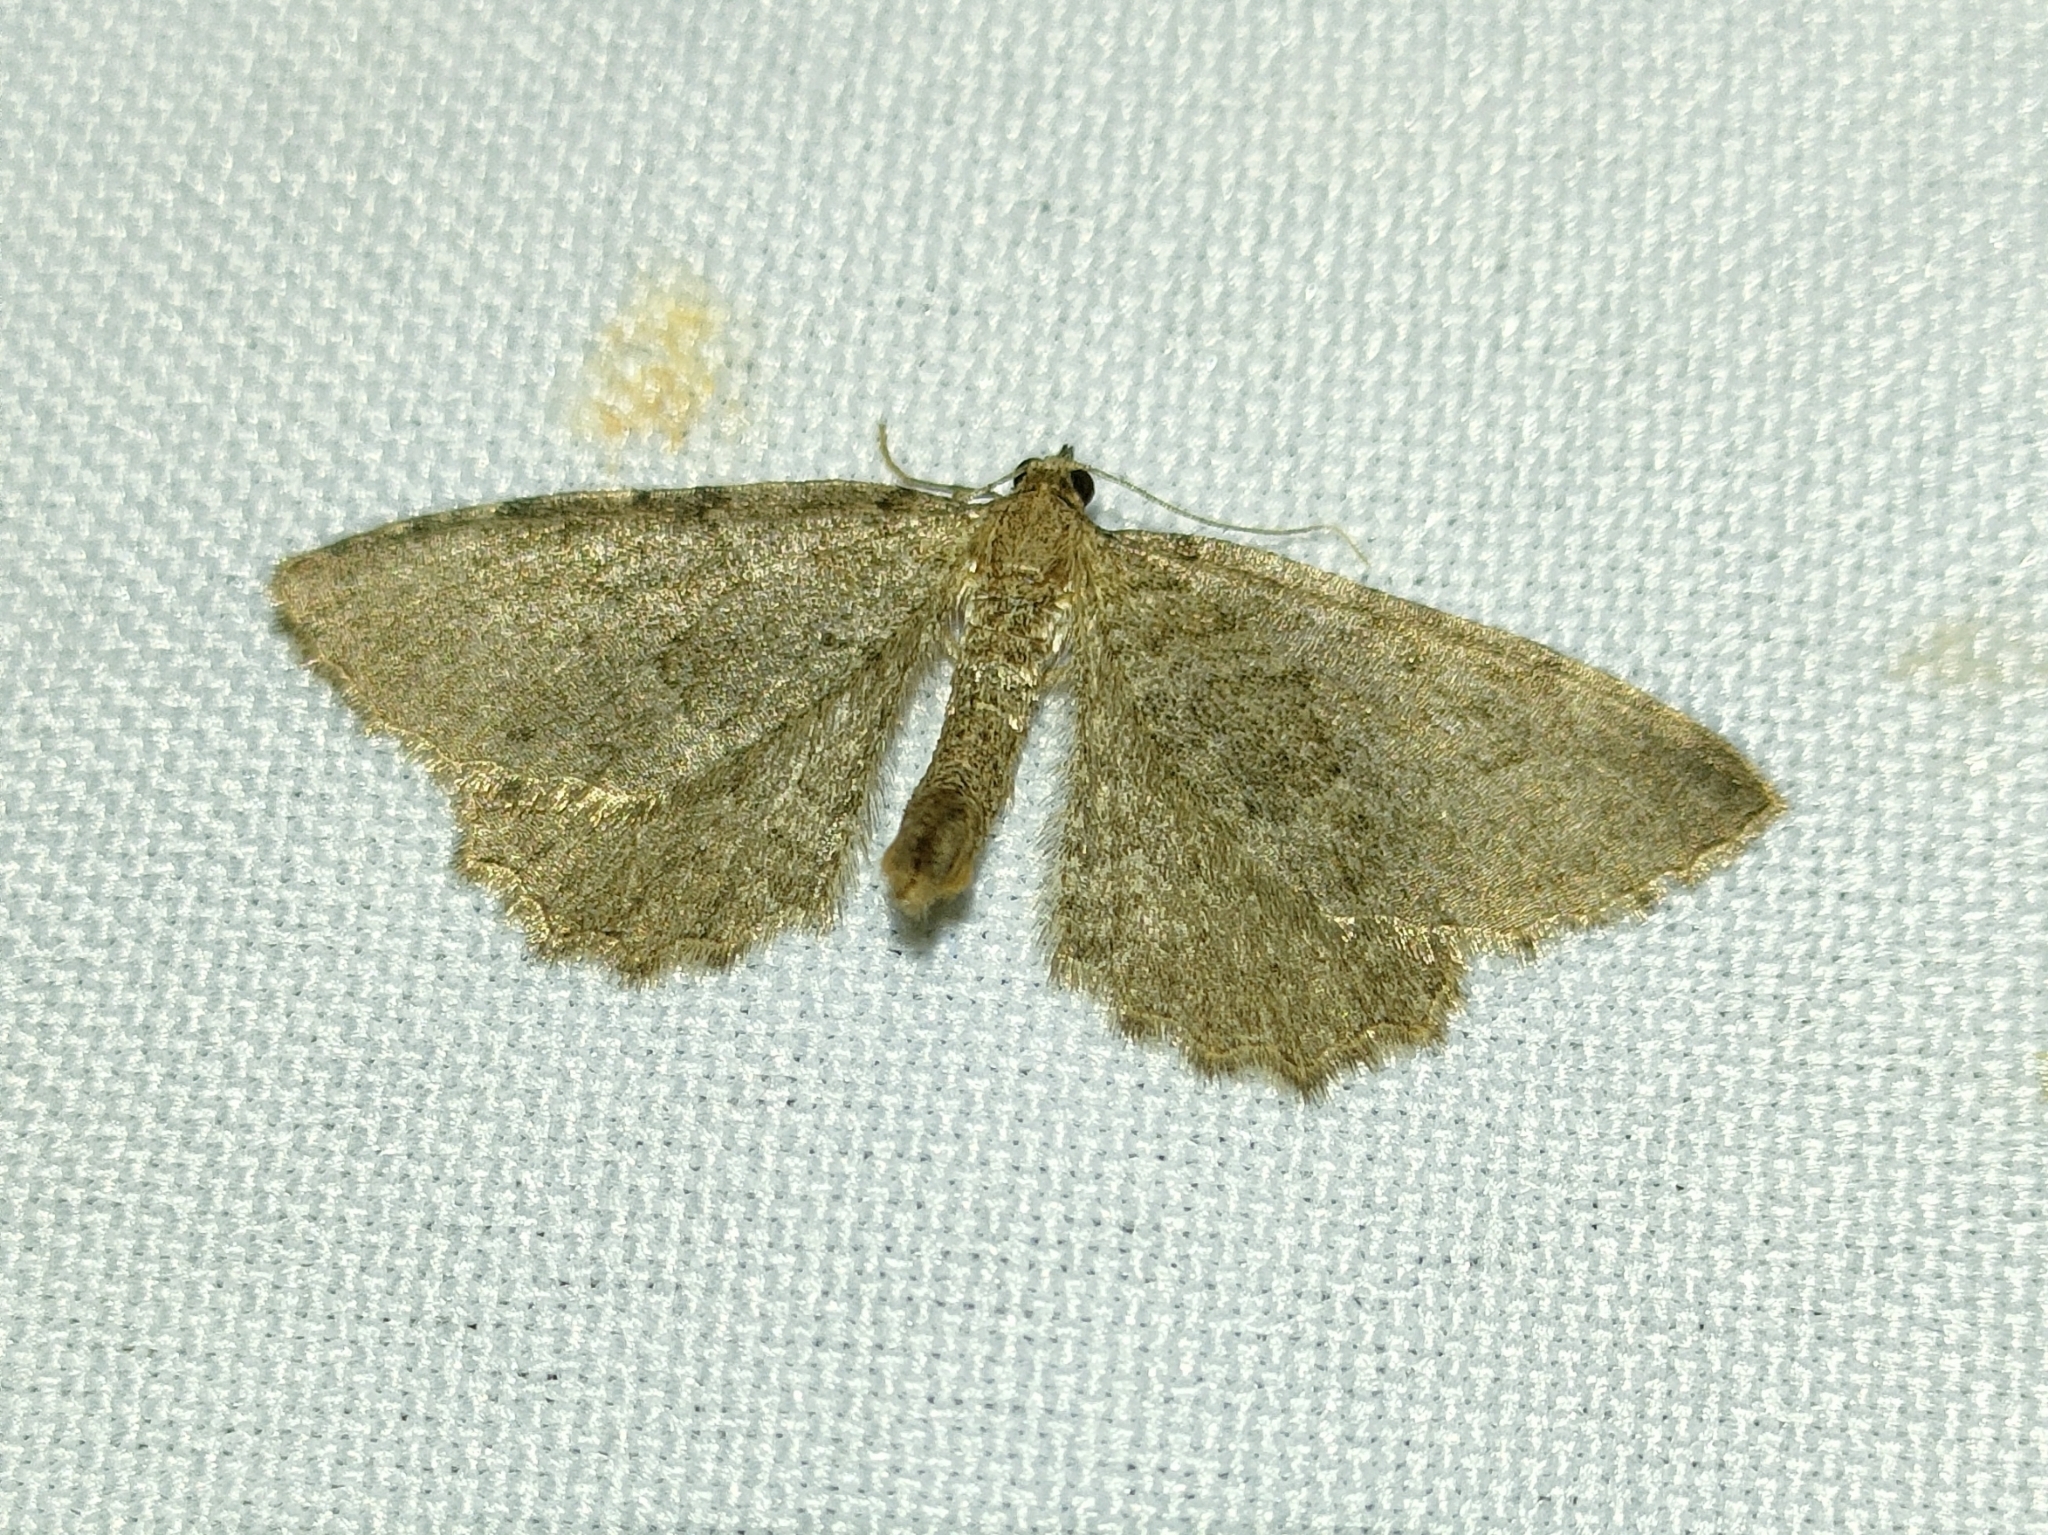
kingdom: Animalia
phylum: Arthropoda
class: Insecta
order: Lepidoptera
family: Geometridae
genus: Philereme
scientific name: Philereme vetulata
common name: Brown scallop
